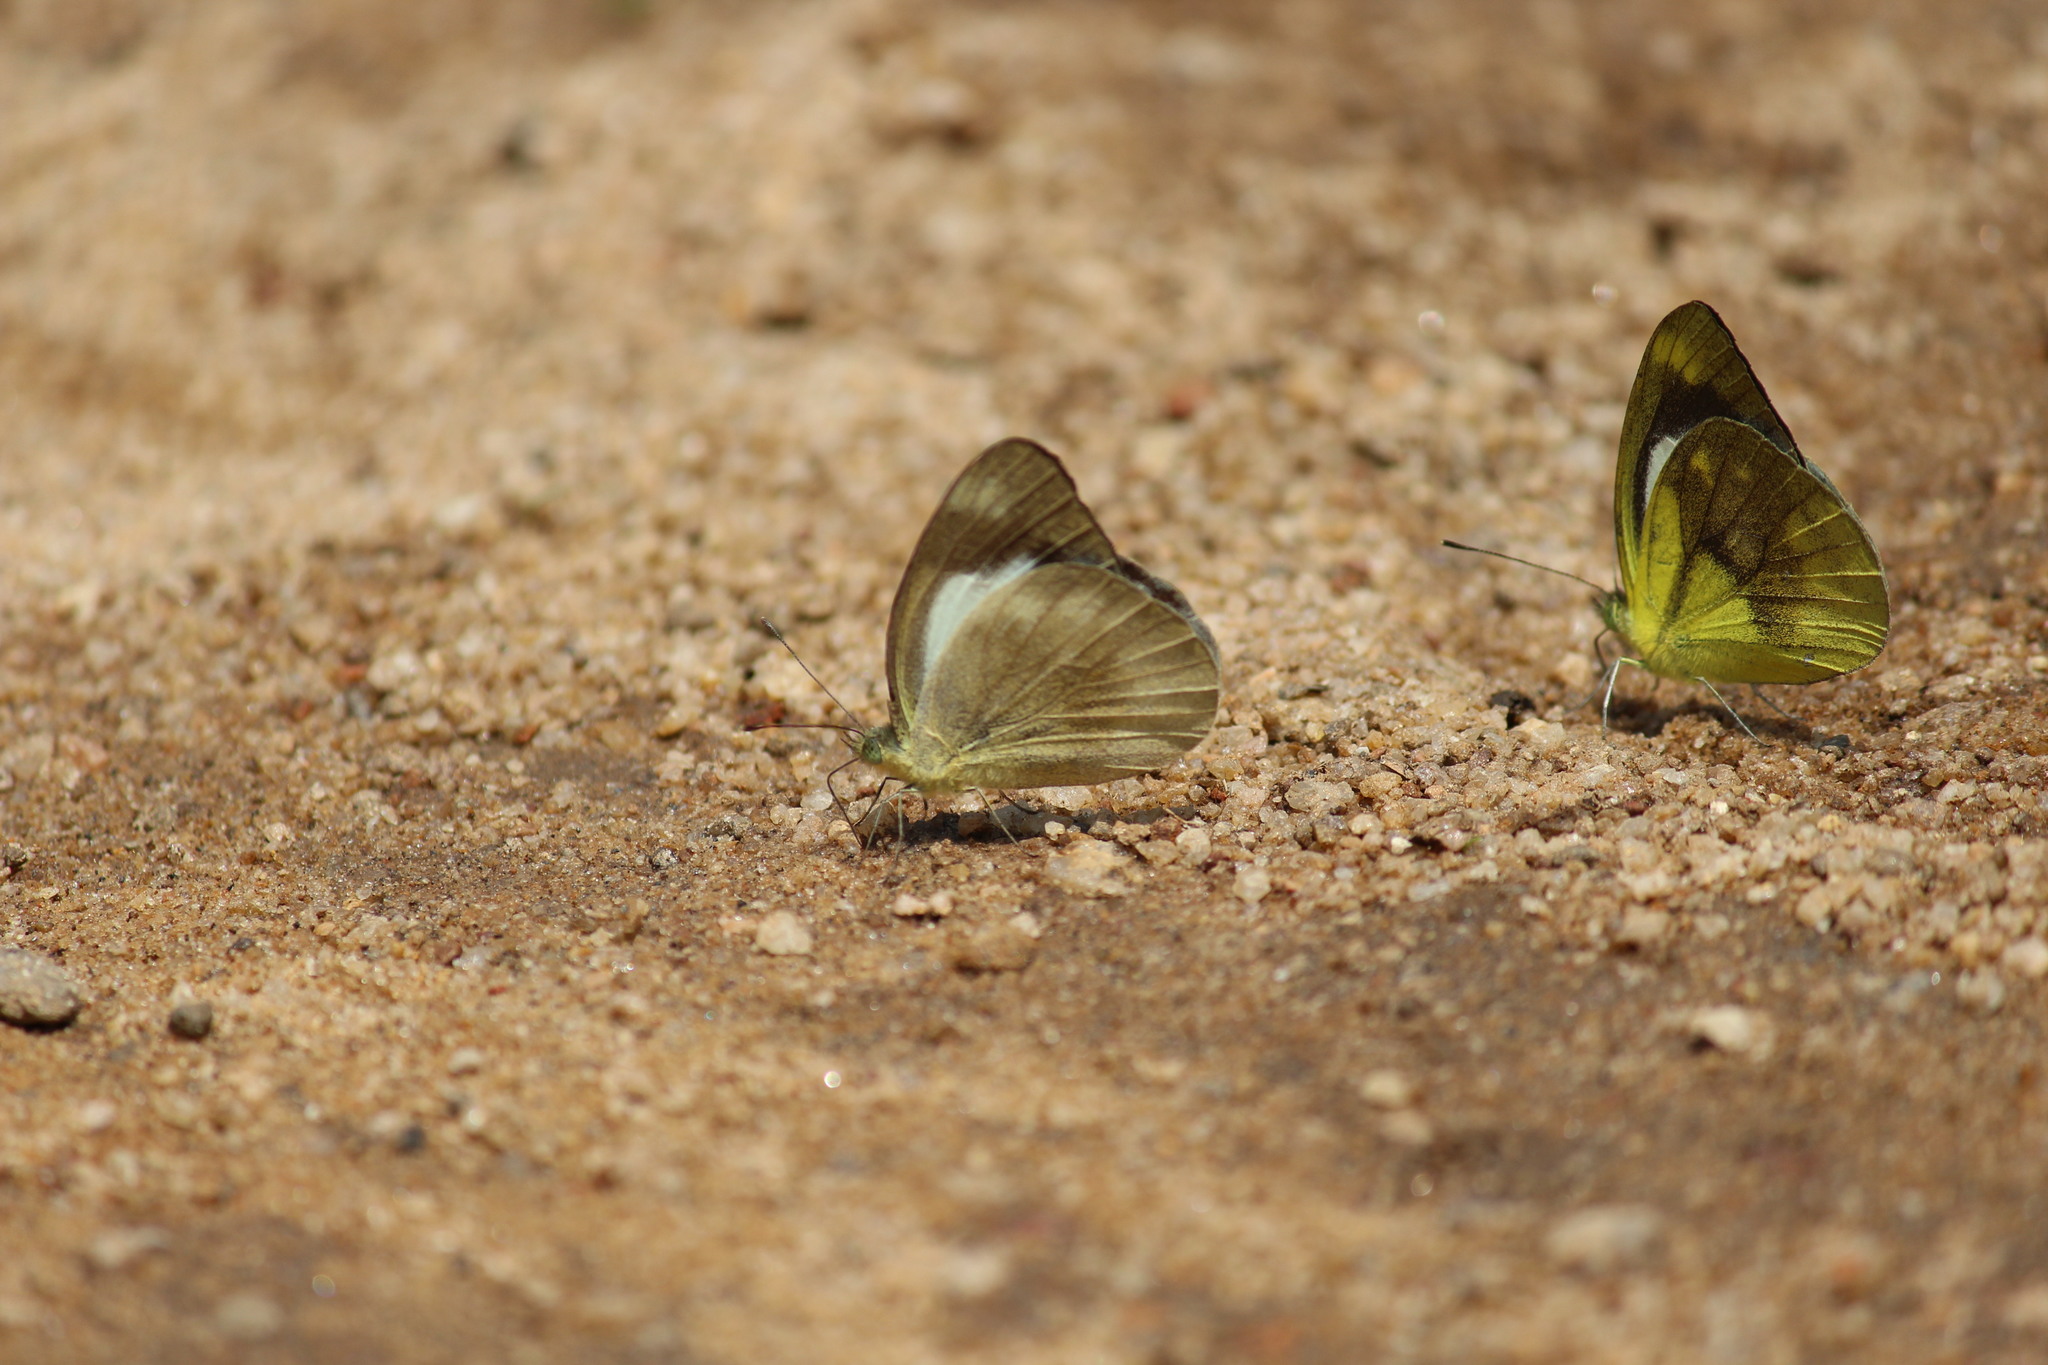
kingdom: Animalia
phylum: Arthropoda
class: Insecta
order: Lepidoptera
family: Pieridae
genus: Cepora
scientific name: Cepora nadina
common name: Lesser gull
